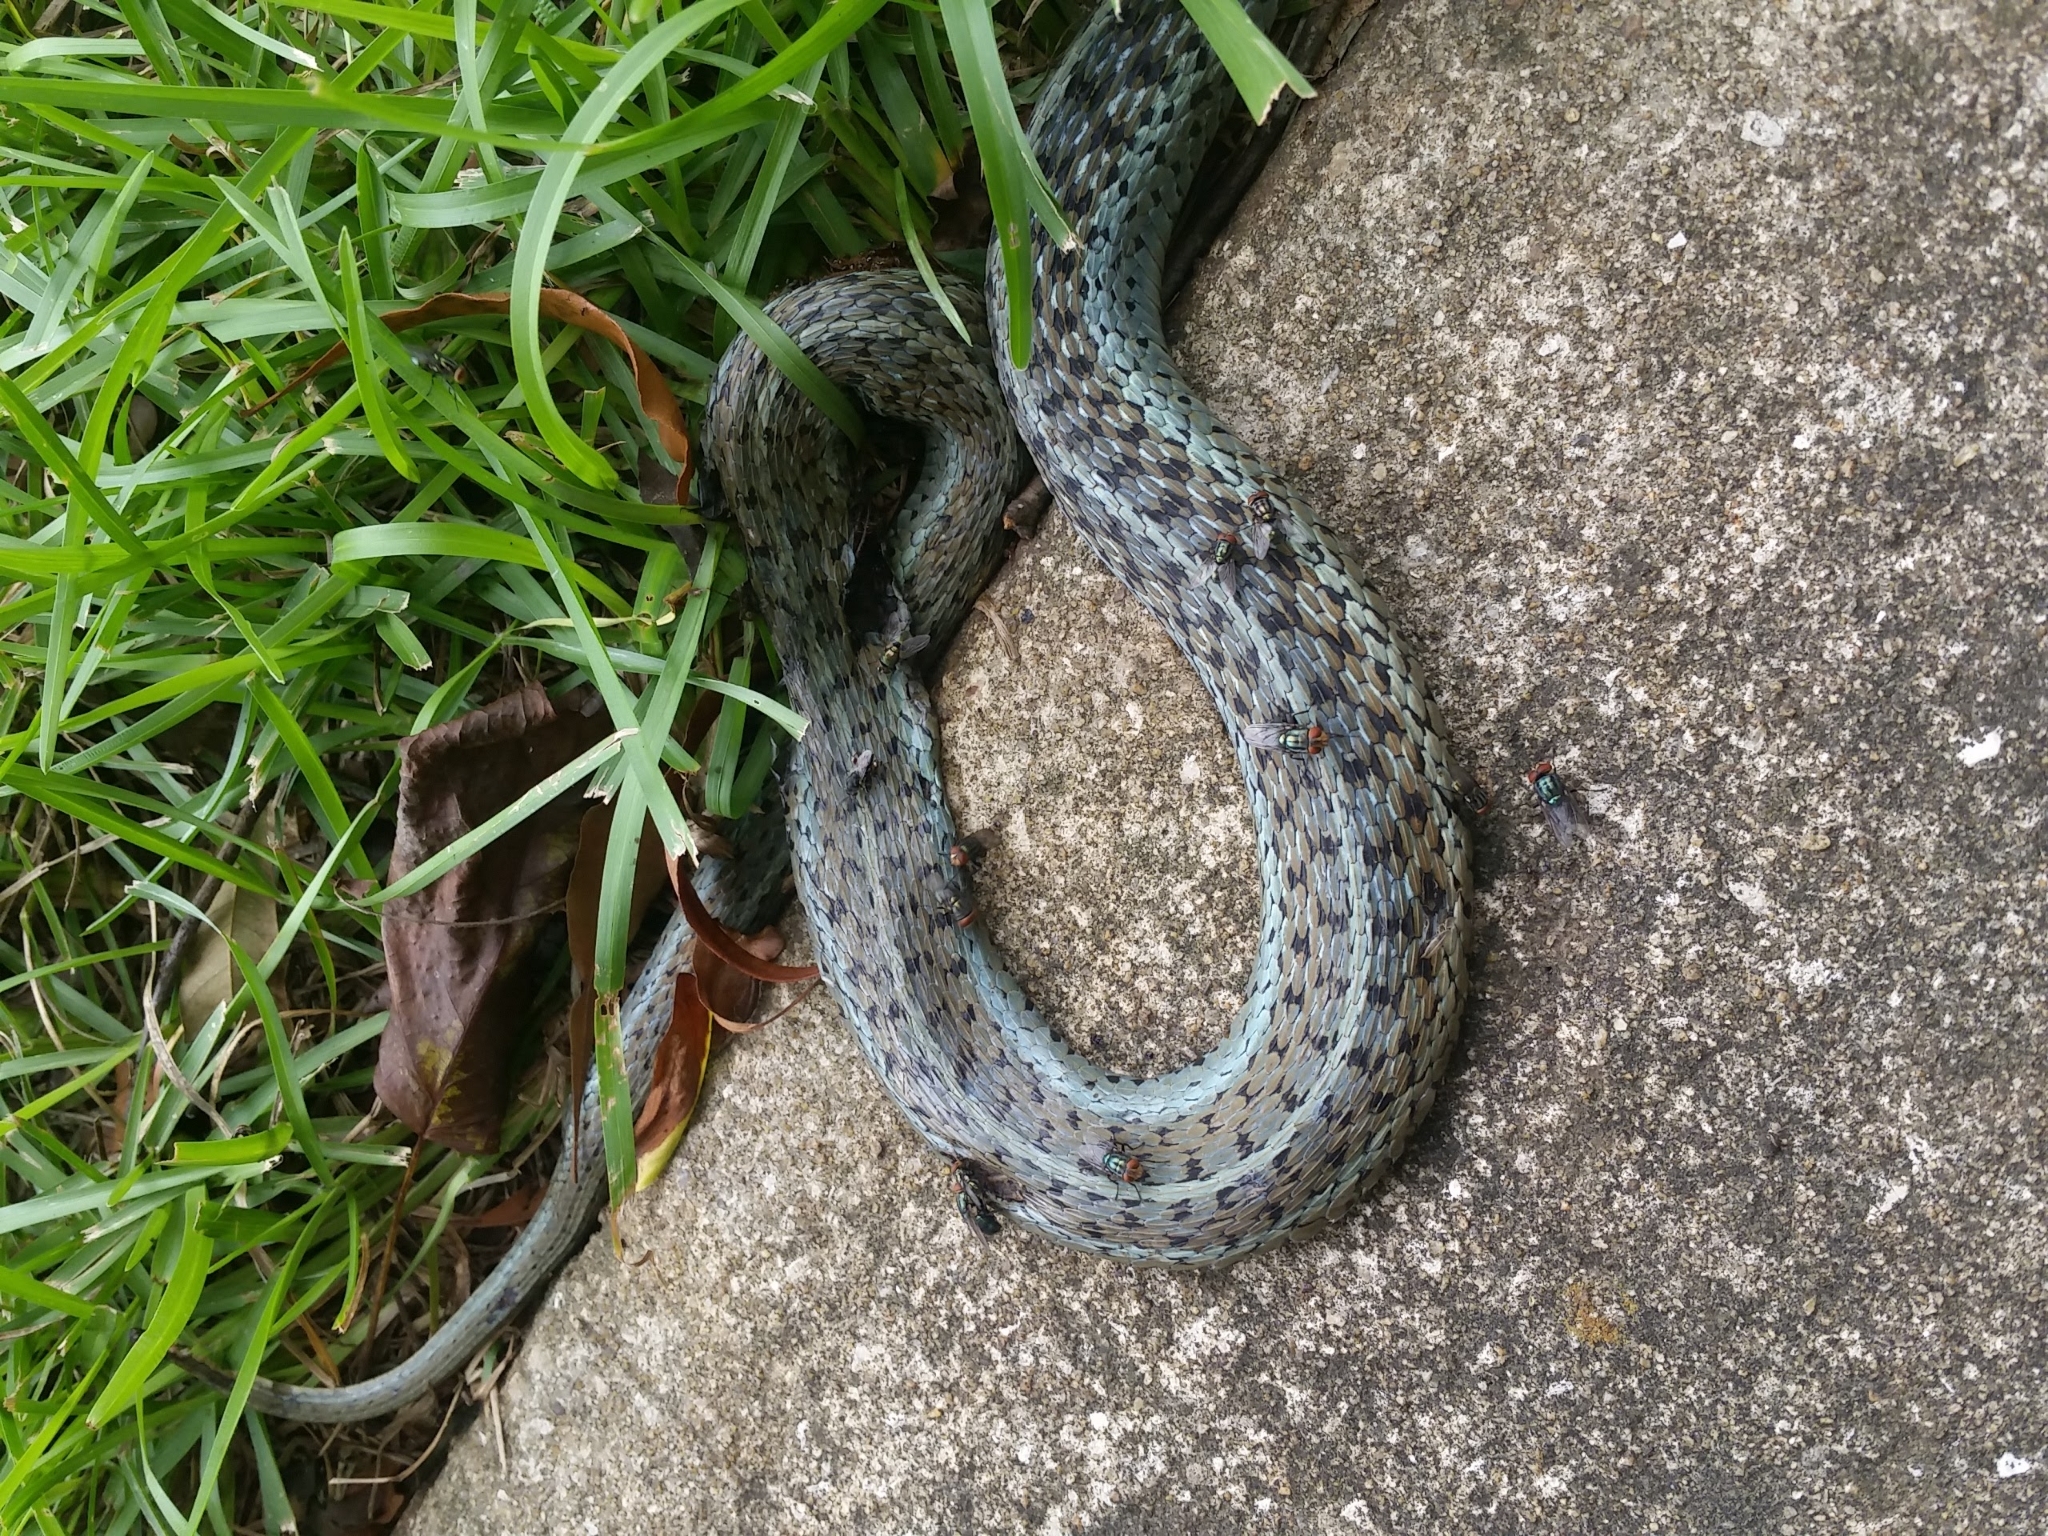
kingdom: Animalia
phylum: Chordata
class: Squamata
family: Colubridae
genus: Thamnophis
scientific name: Thamnophis sirtalis
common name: Common garter snake
